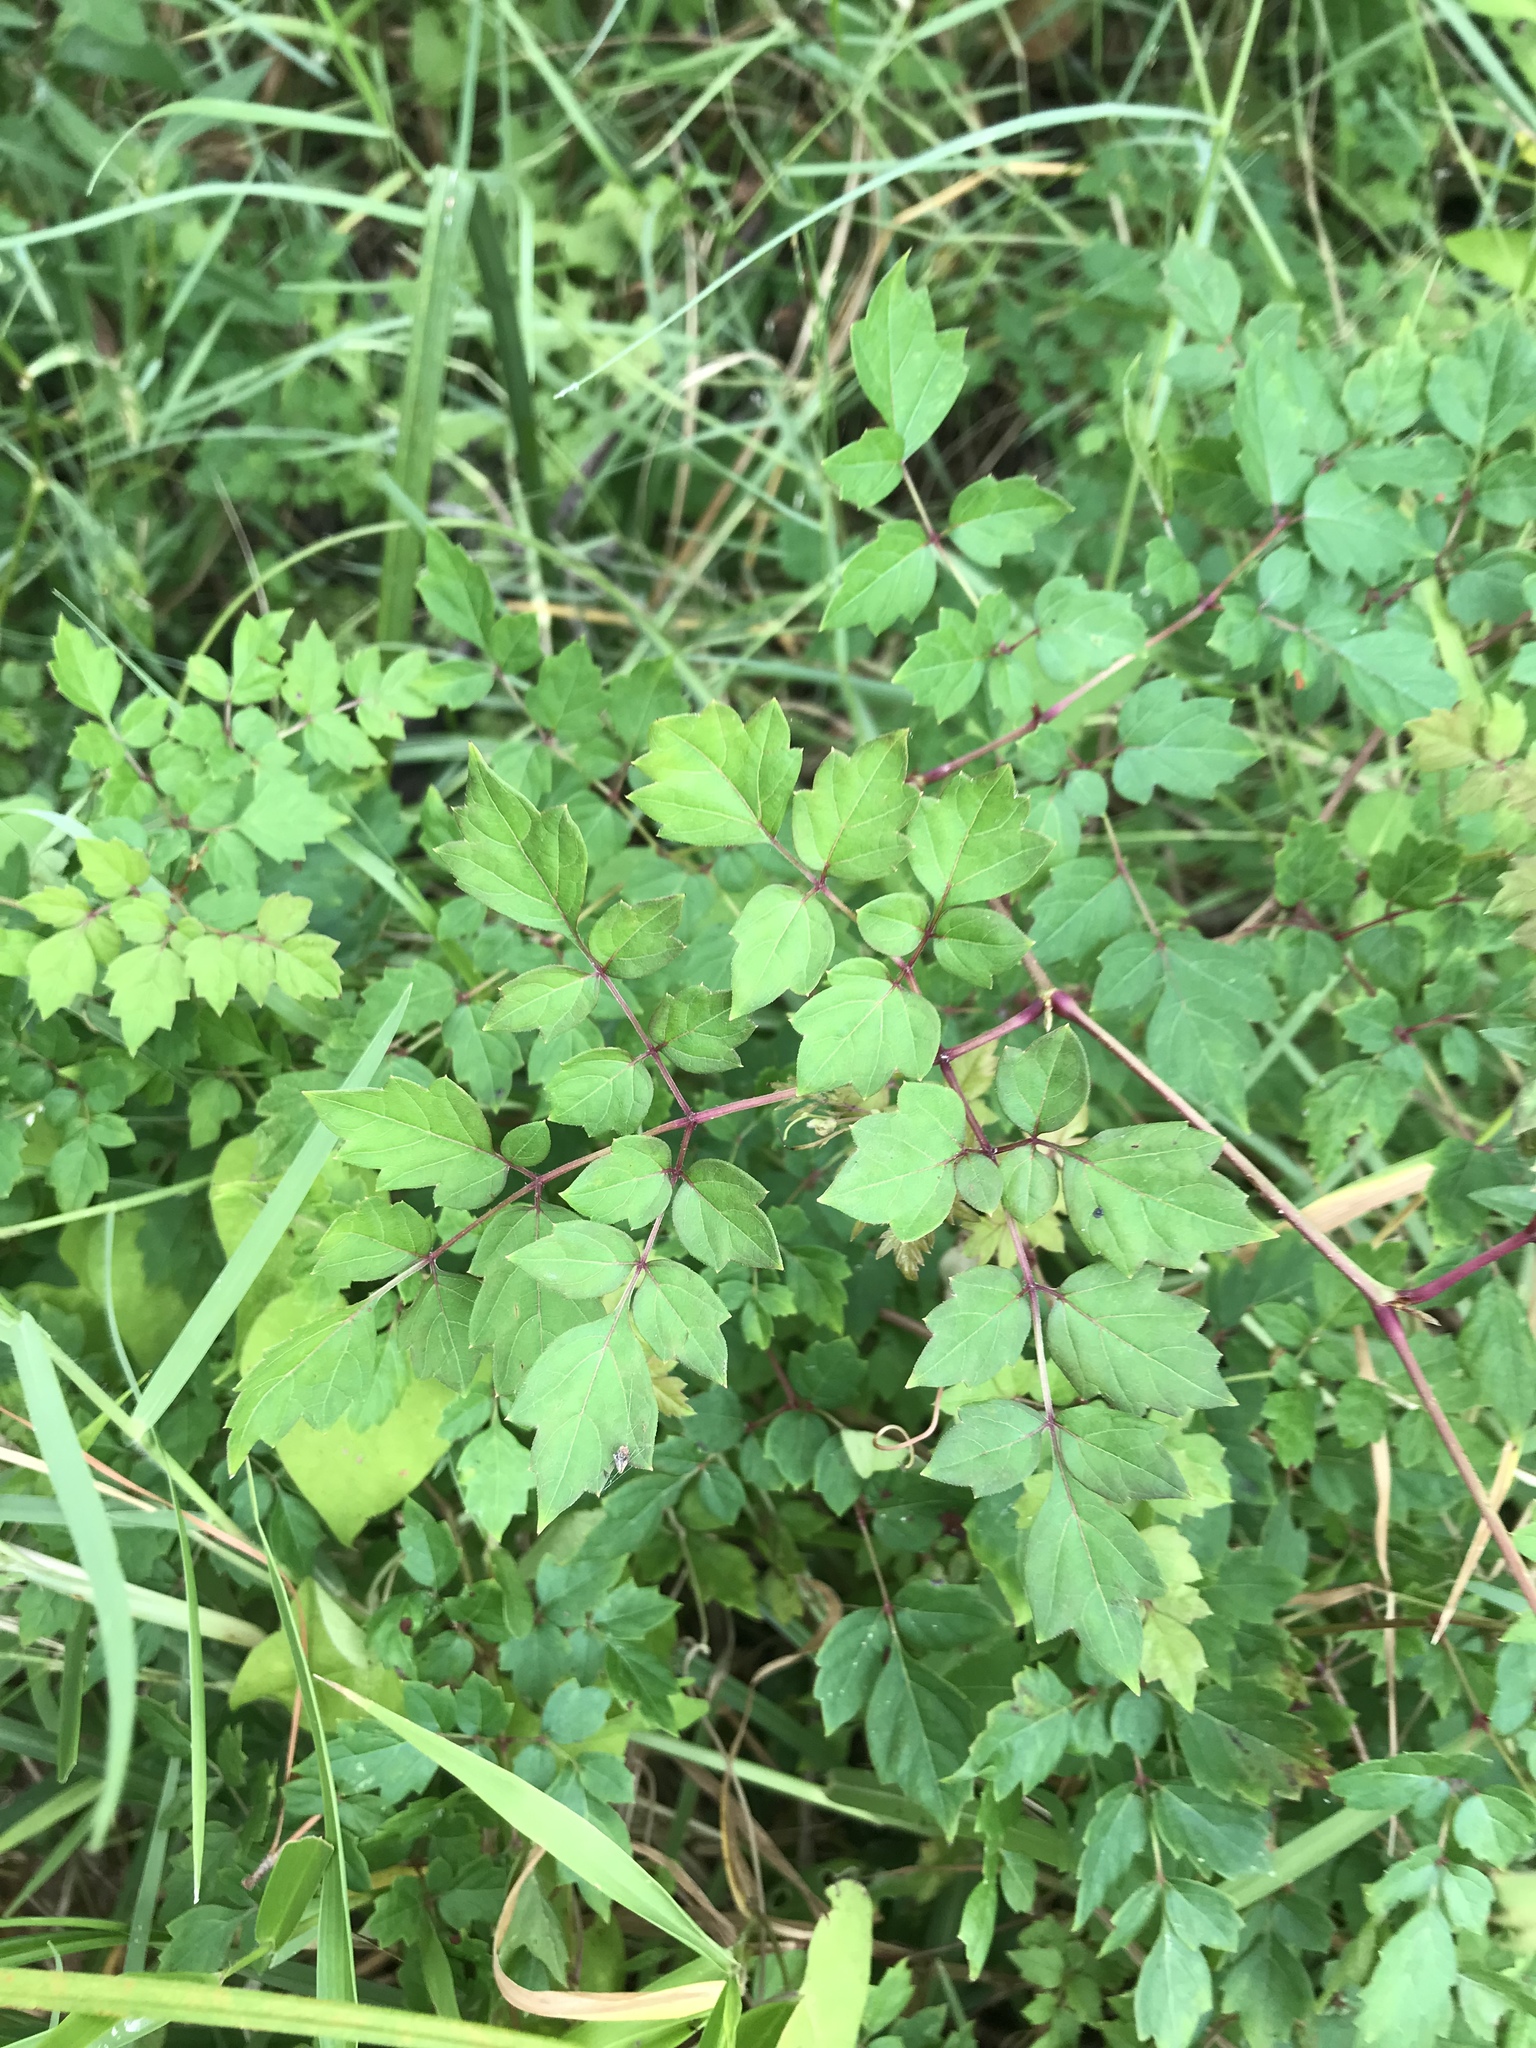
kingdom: Plantae
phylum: Tracheophyta
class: Magnoliopsida
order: Vitales
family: Vitaceae
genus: Nekemias
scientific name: Nekemias arborea
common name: Peppervine
